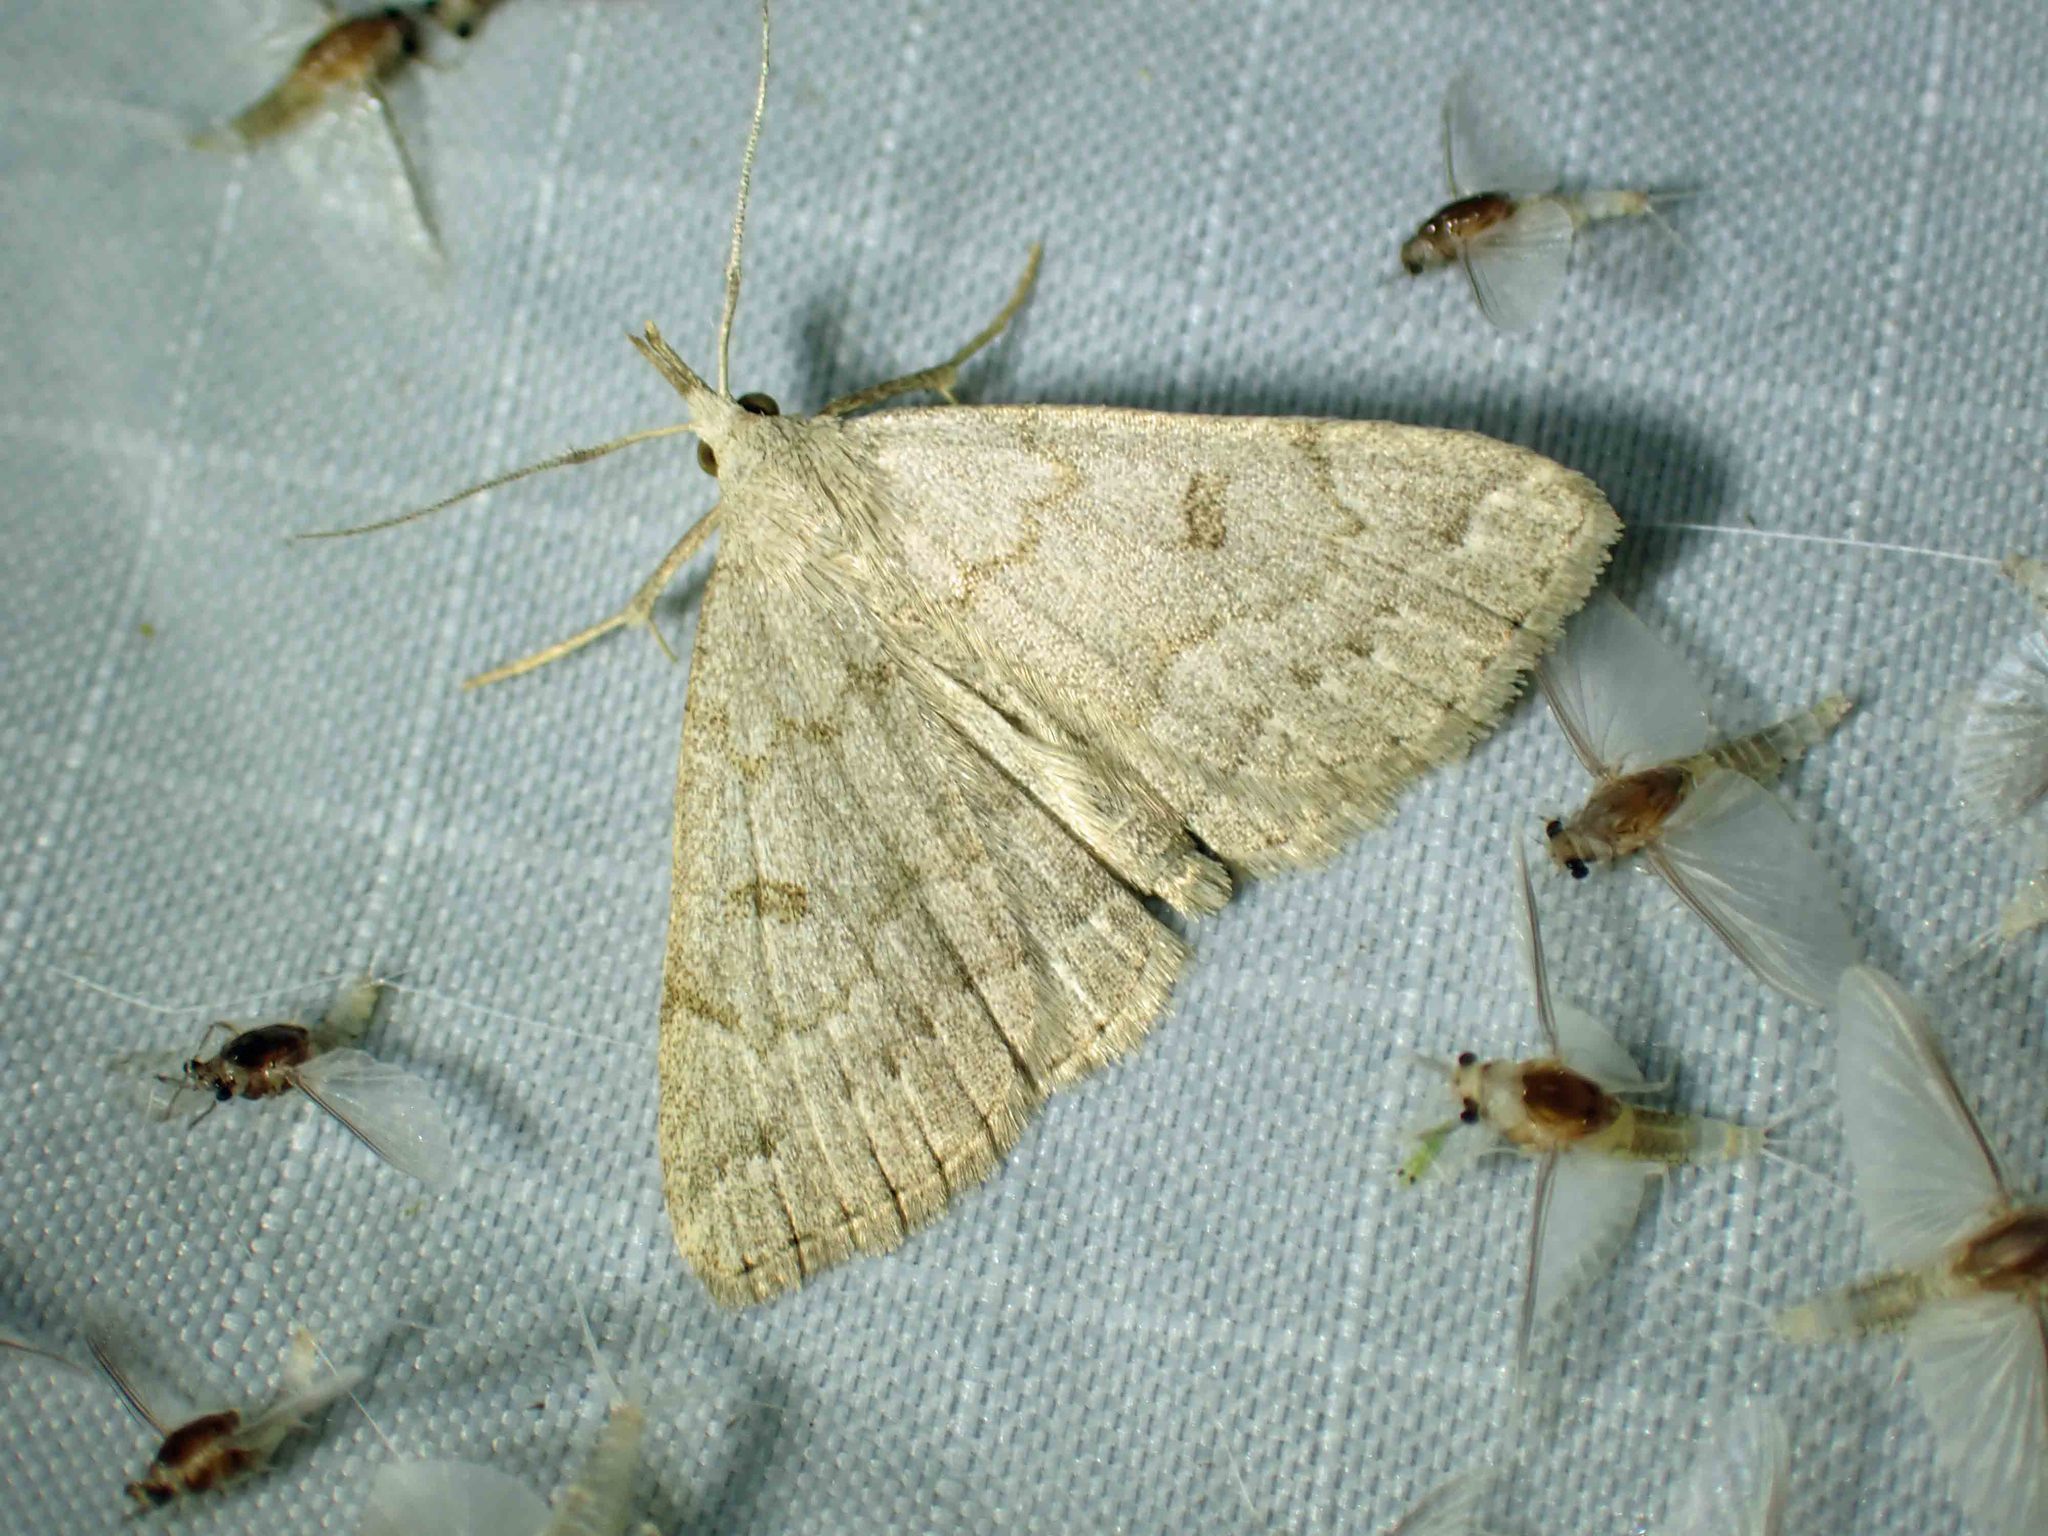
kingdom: Animalia
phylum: Arthropoda
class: Insecta
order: Lepidoptera
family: Erebidae
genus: Macrochilo
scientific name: Macrochilo morbidalis
